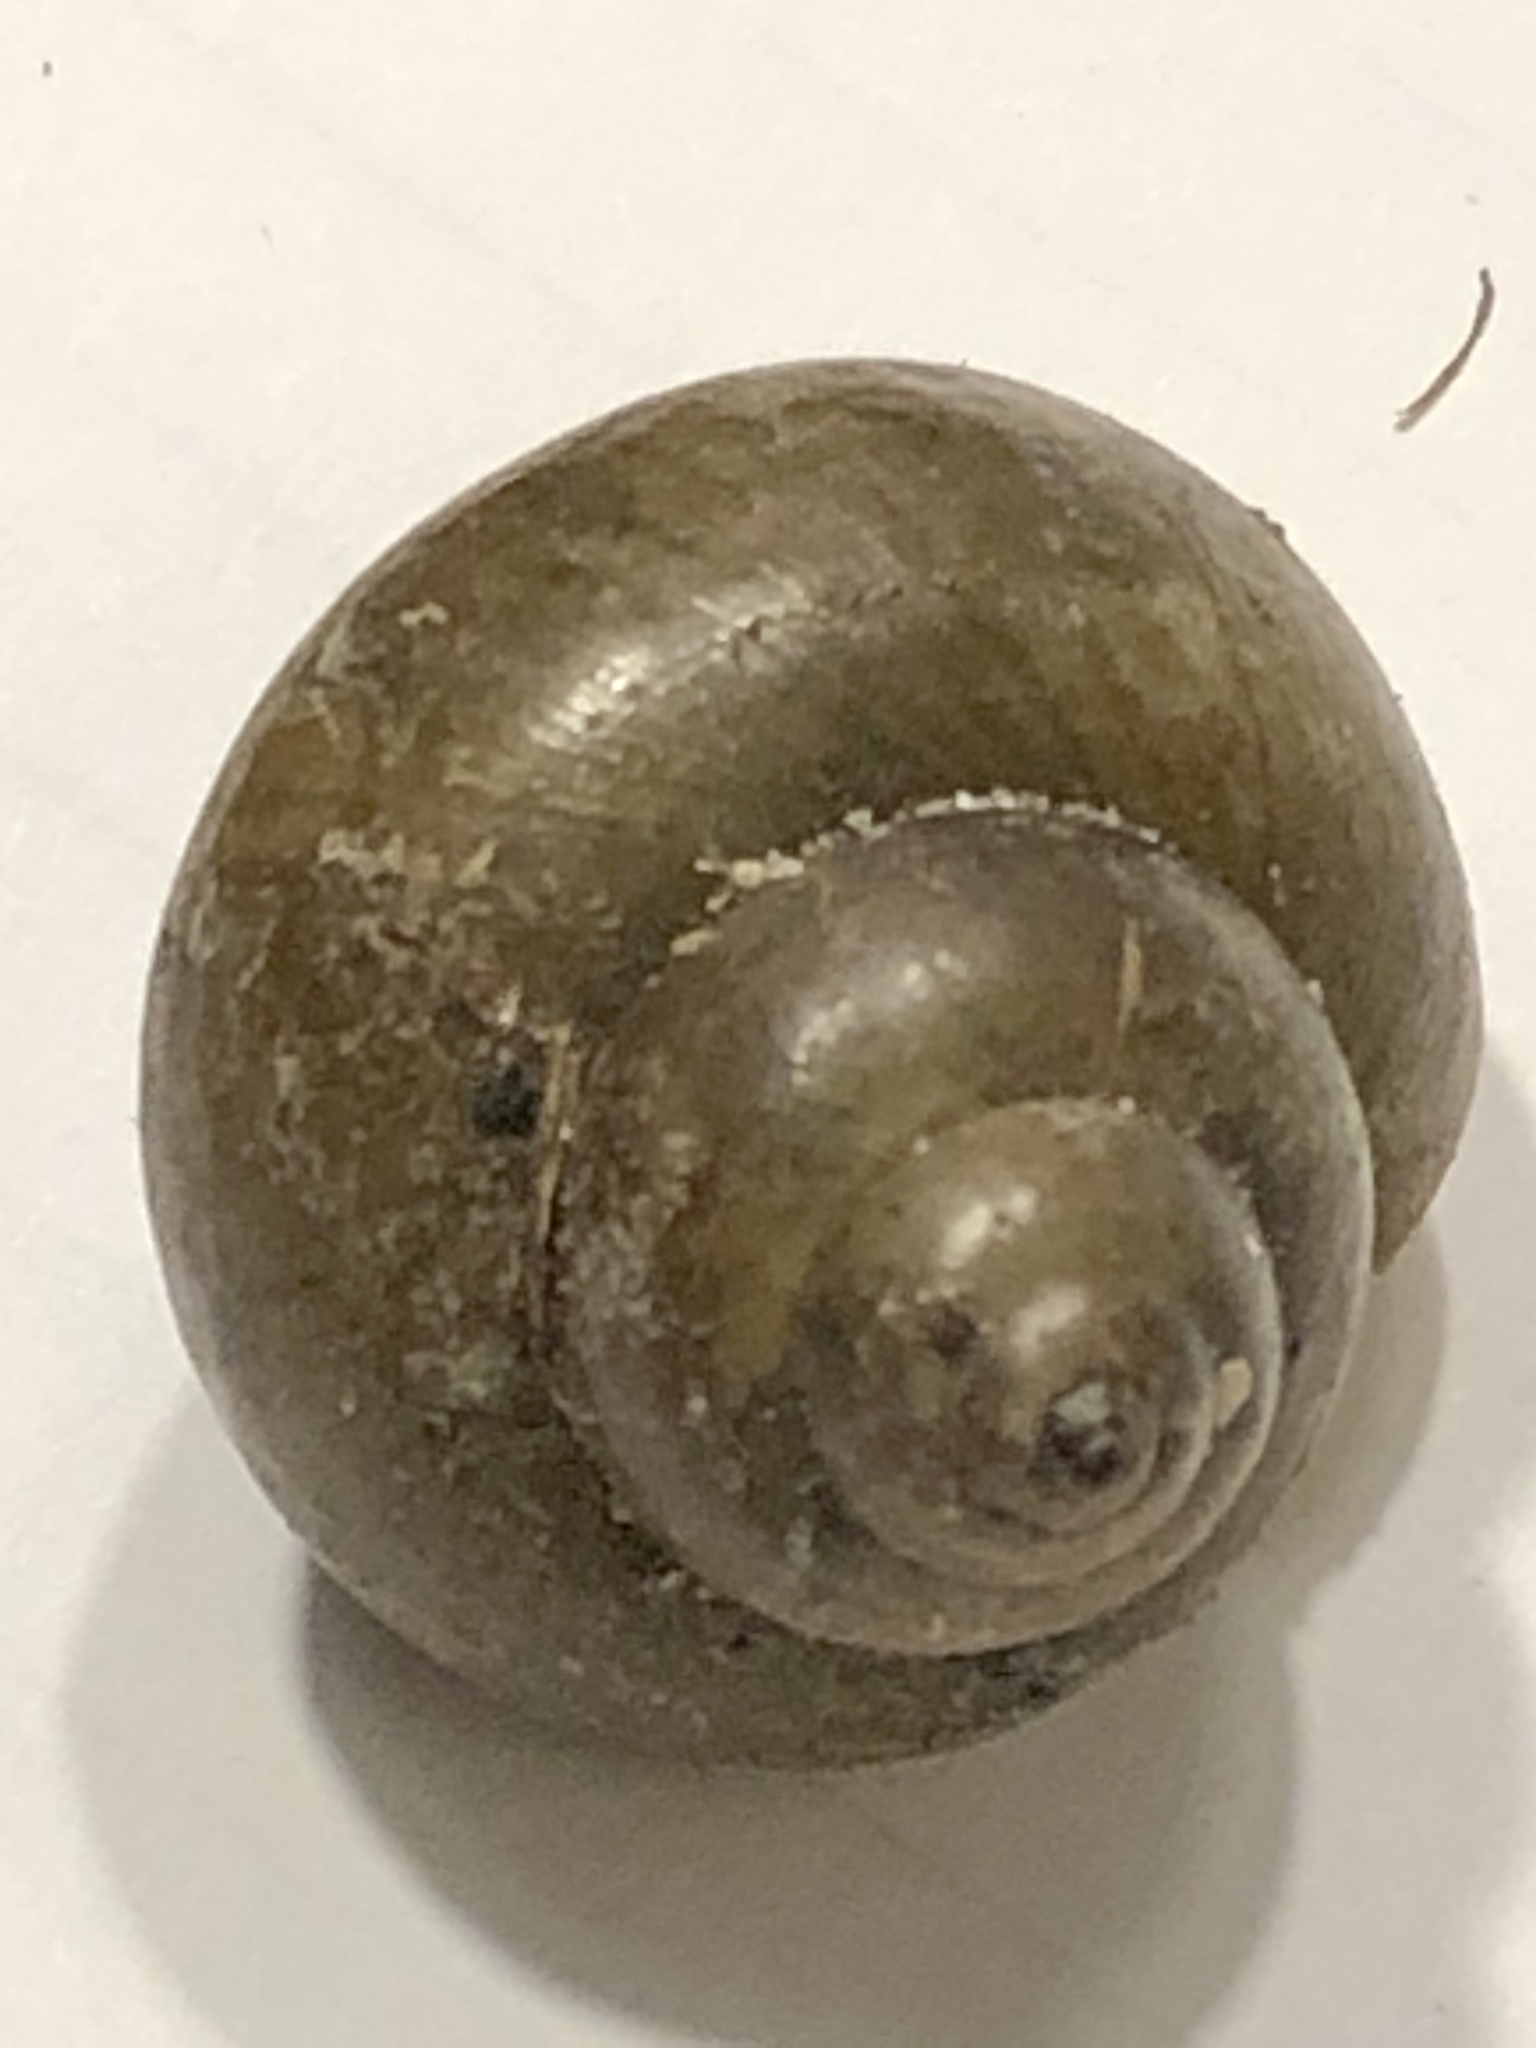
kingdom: Animalia
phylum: Mollusca
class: Gastropoda
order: Architaenioglossa
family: Viviparidae
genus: Cipangopaludina
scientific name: Cipangopaludina chinensis
